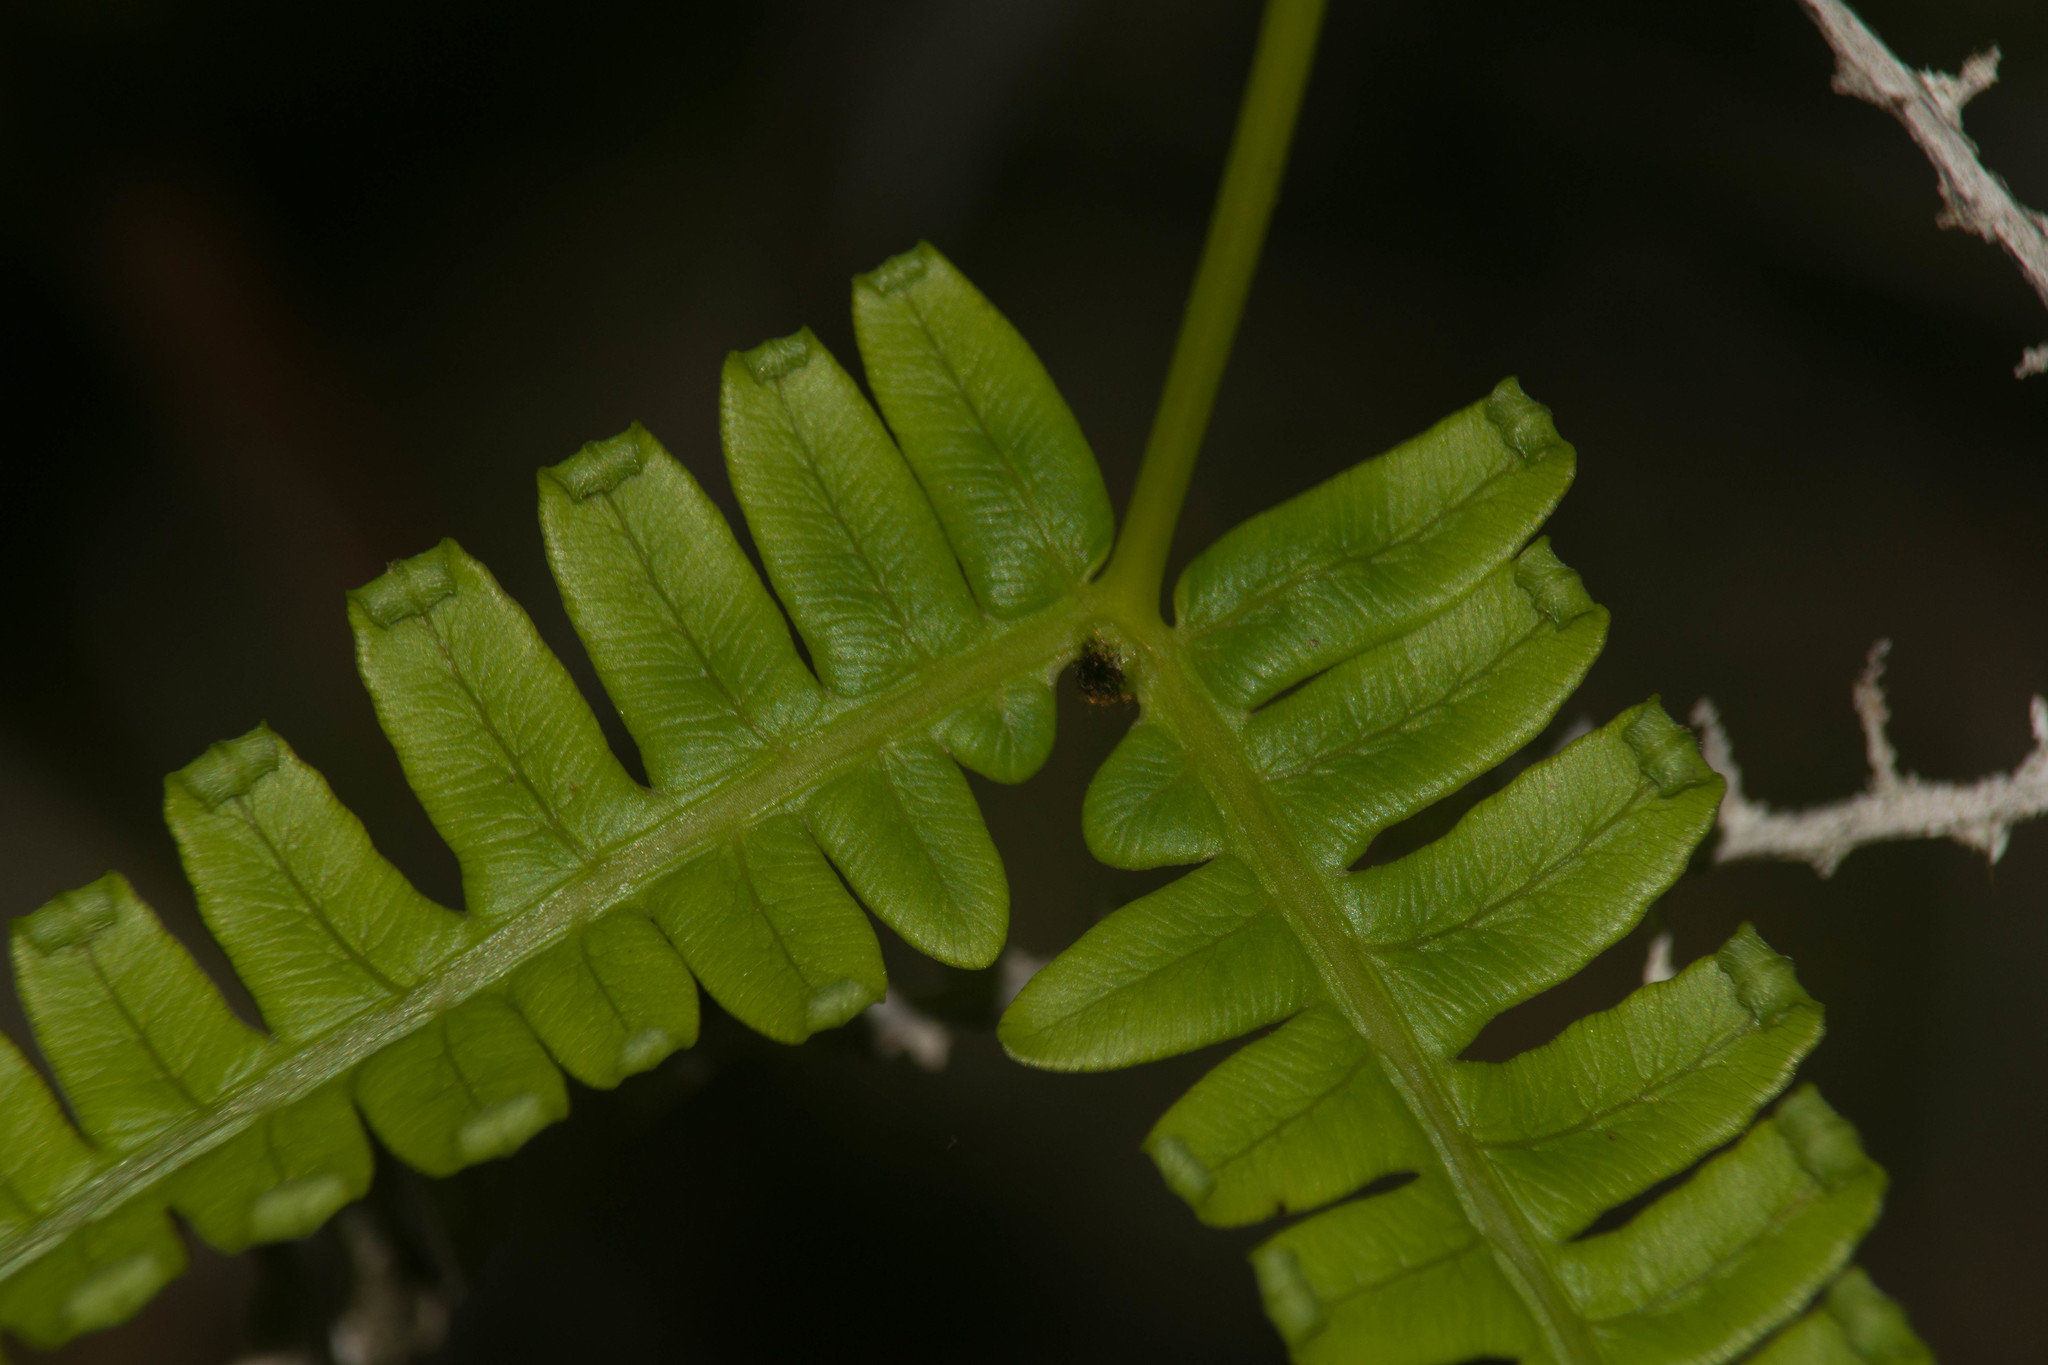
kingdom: Plantae
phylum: Tracheophyta
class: Polypodiopsida
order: Gleicheniales
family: Gleicheniaceae
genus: Dicranopteris
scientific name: Dicranopteris linearis
